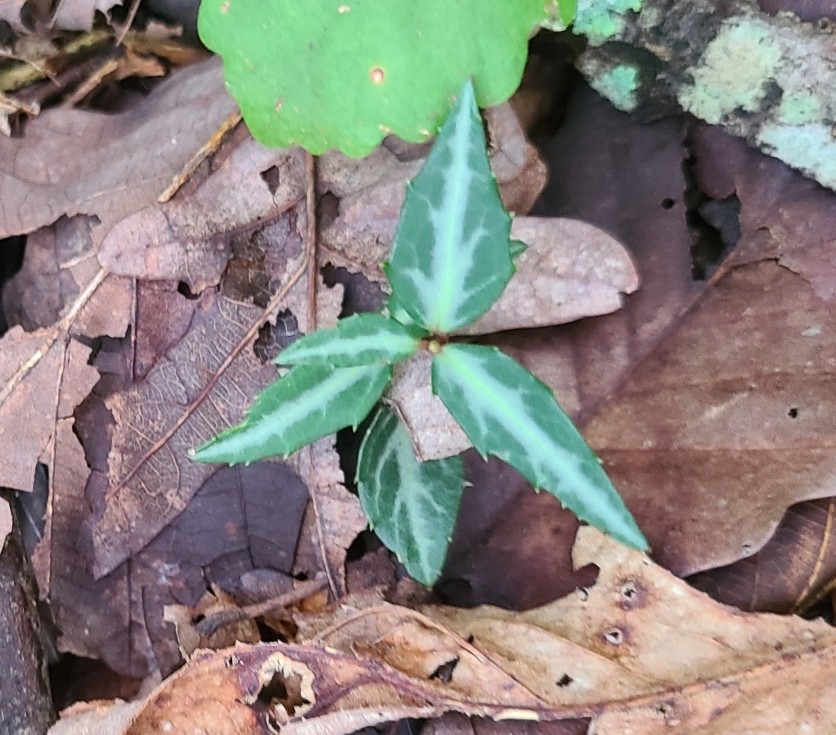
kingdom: Plantae
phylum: Tracheophyta
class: Magnoliopsida
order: Ericales
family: Ericaceae
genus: Chimaphila
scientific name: Chimaphila maculata
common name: Spotted pipsissewa
